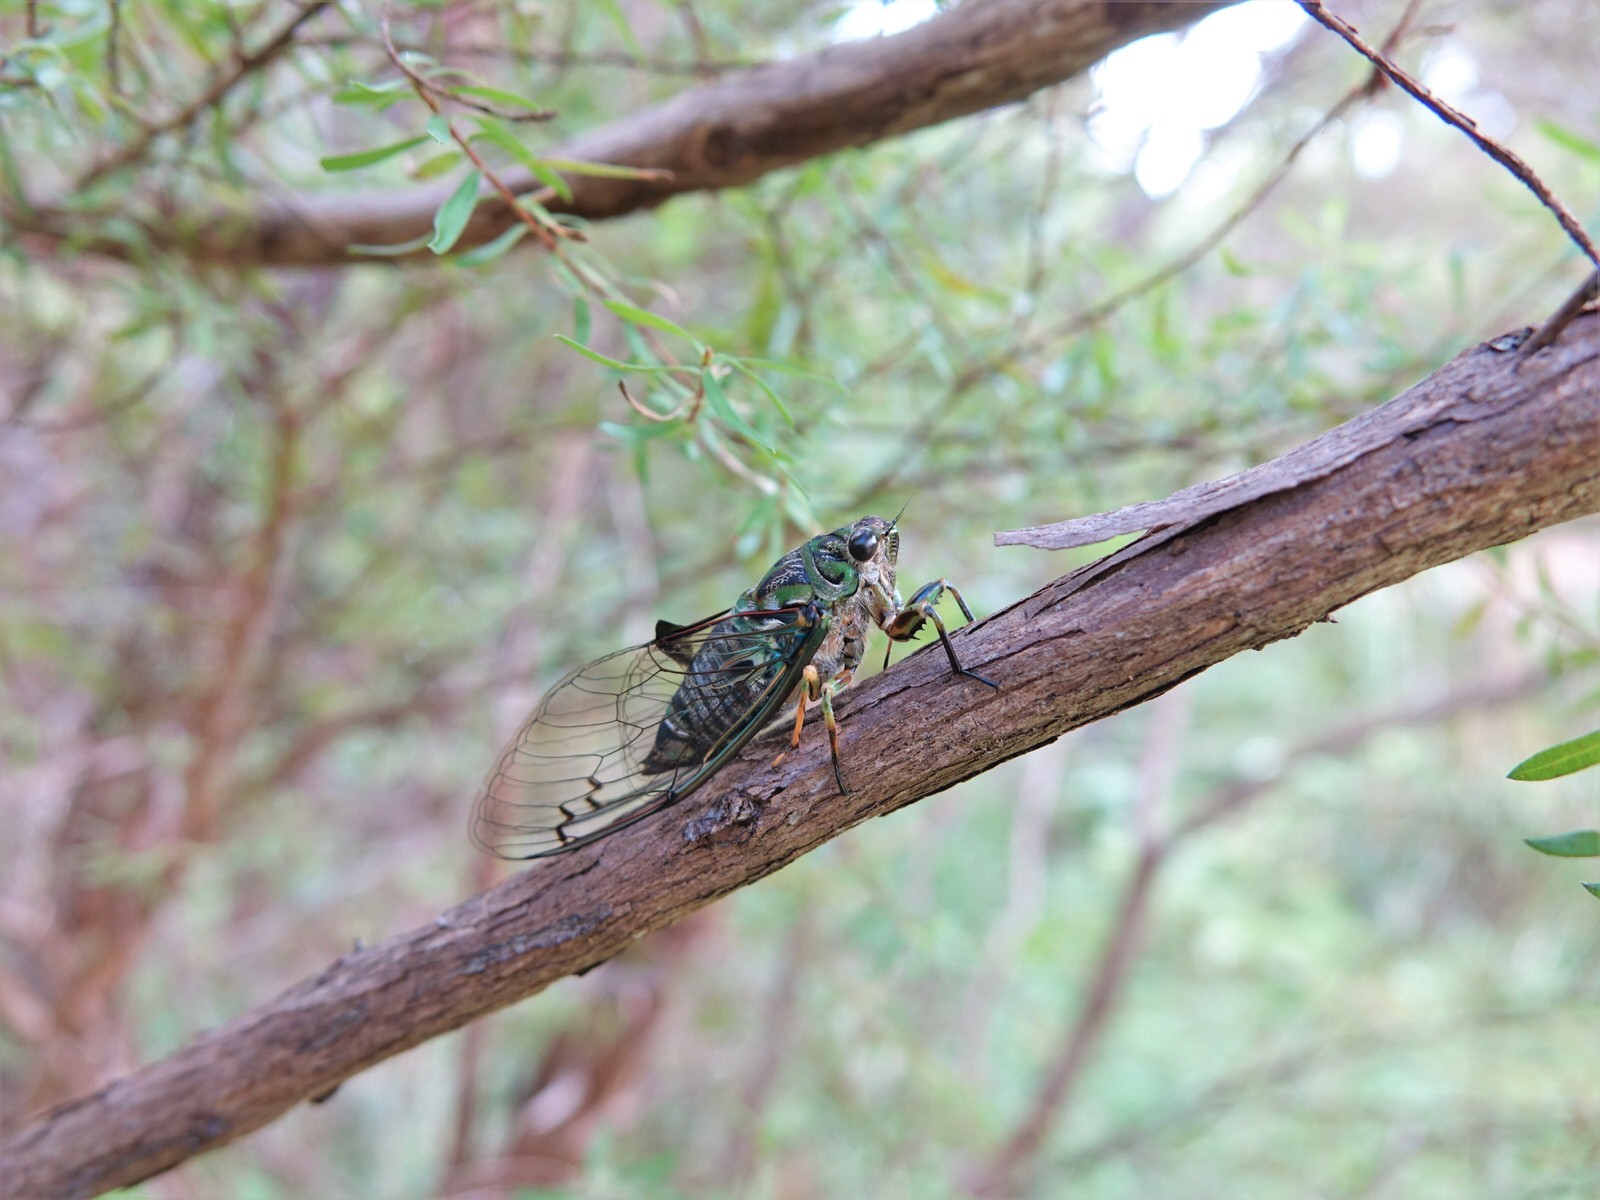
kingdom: Animalia
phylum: Arthropoda
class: Insecta
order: Hemiptera
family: Cicadidae
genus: Amphipsalta
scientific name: Amphipsalta zelandica
